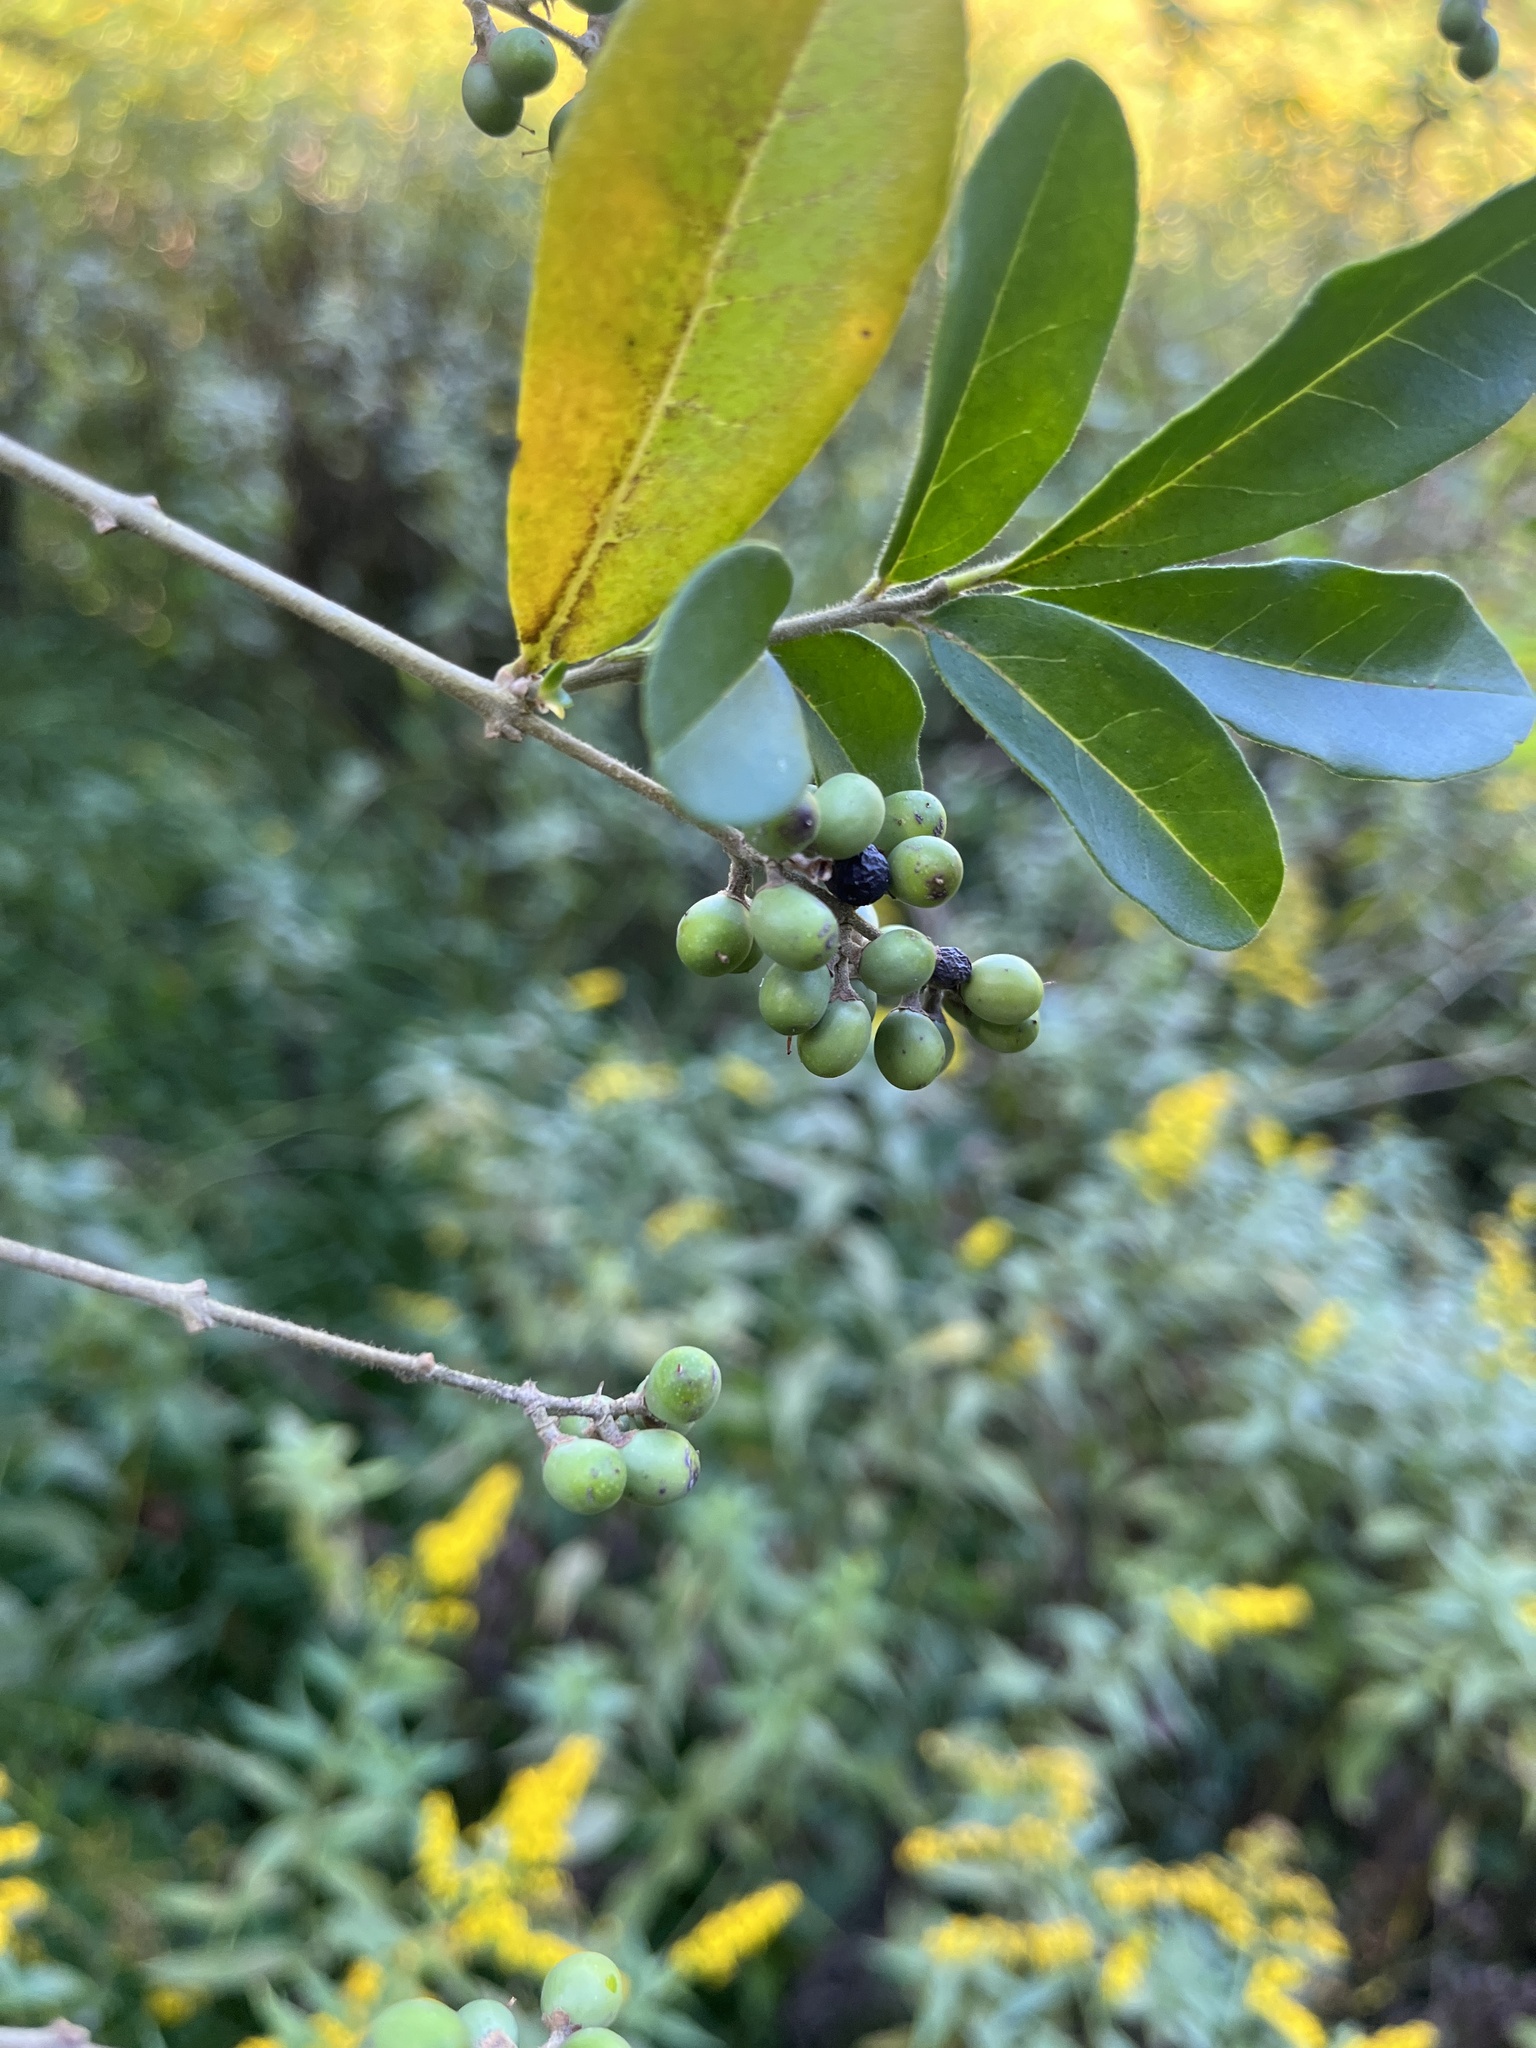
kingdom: Plantae
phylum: Tracheophyta
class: Magnoliopsida
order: Lamiales
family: Oleaceae
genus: Ligustrum
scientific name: Ligustrum obtusifolium
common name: Border privet
